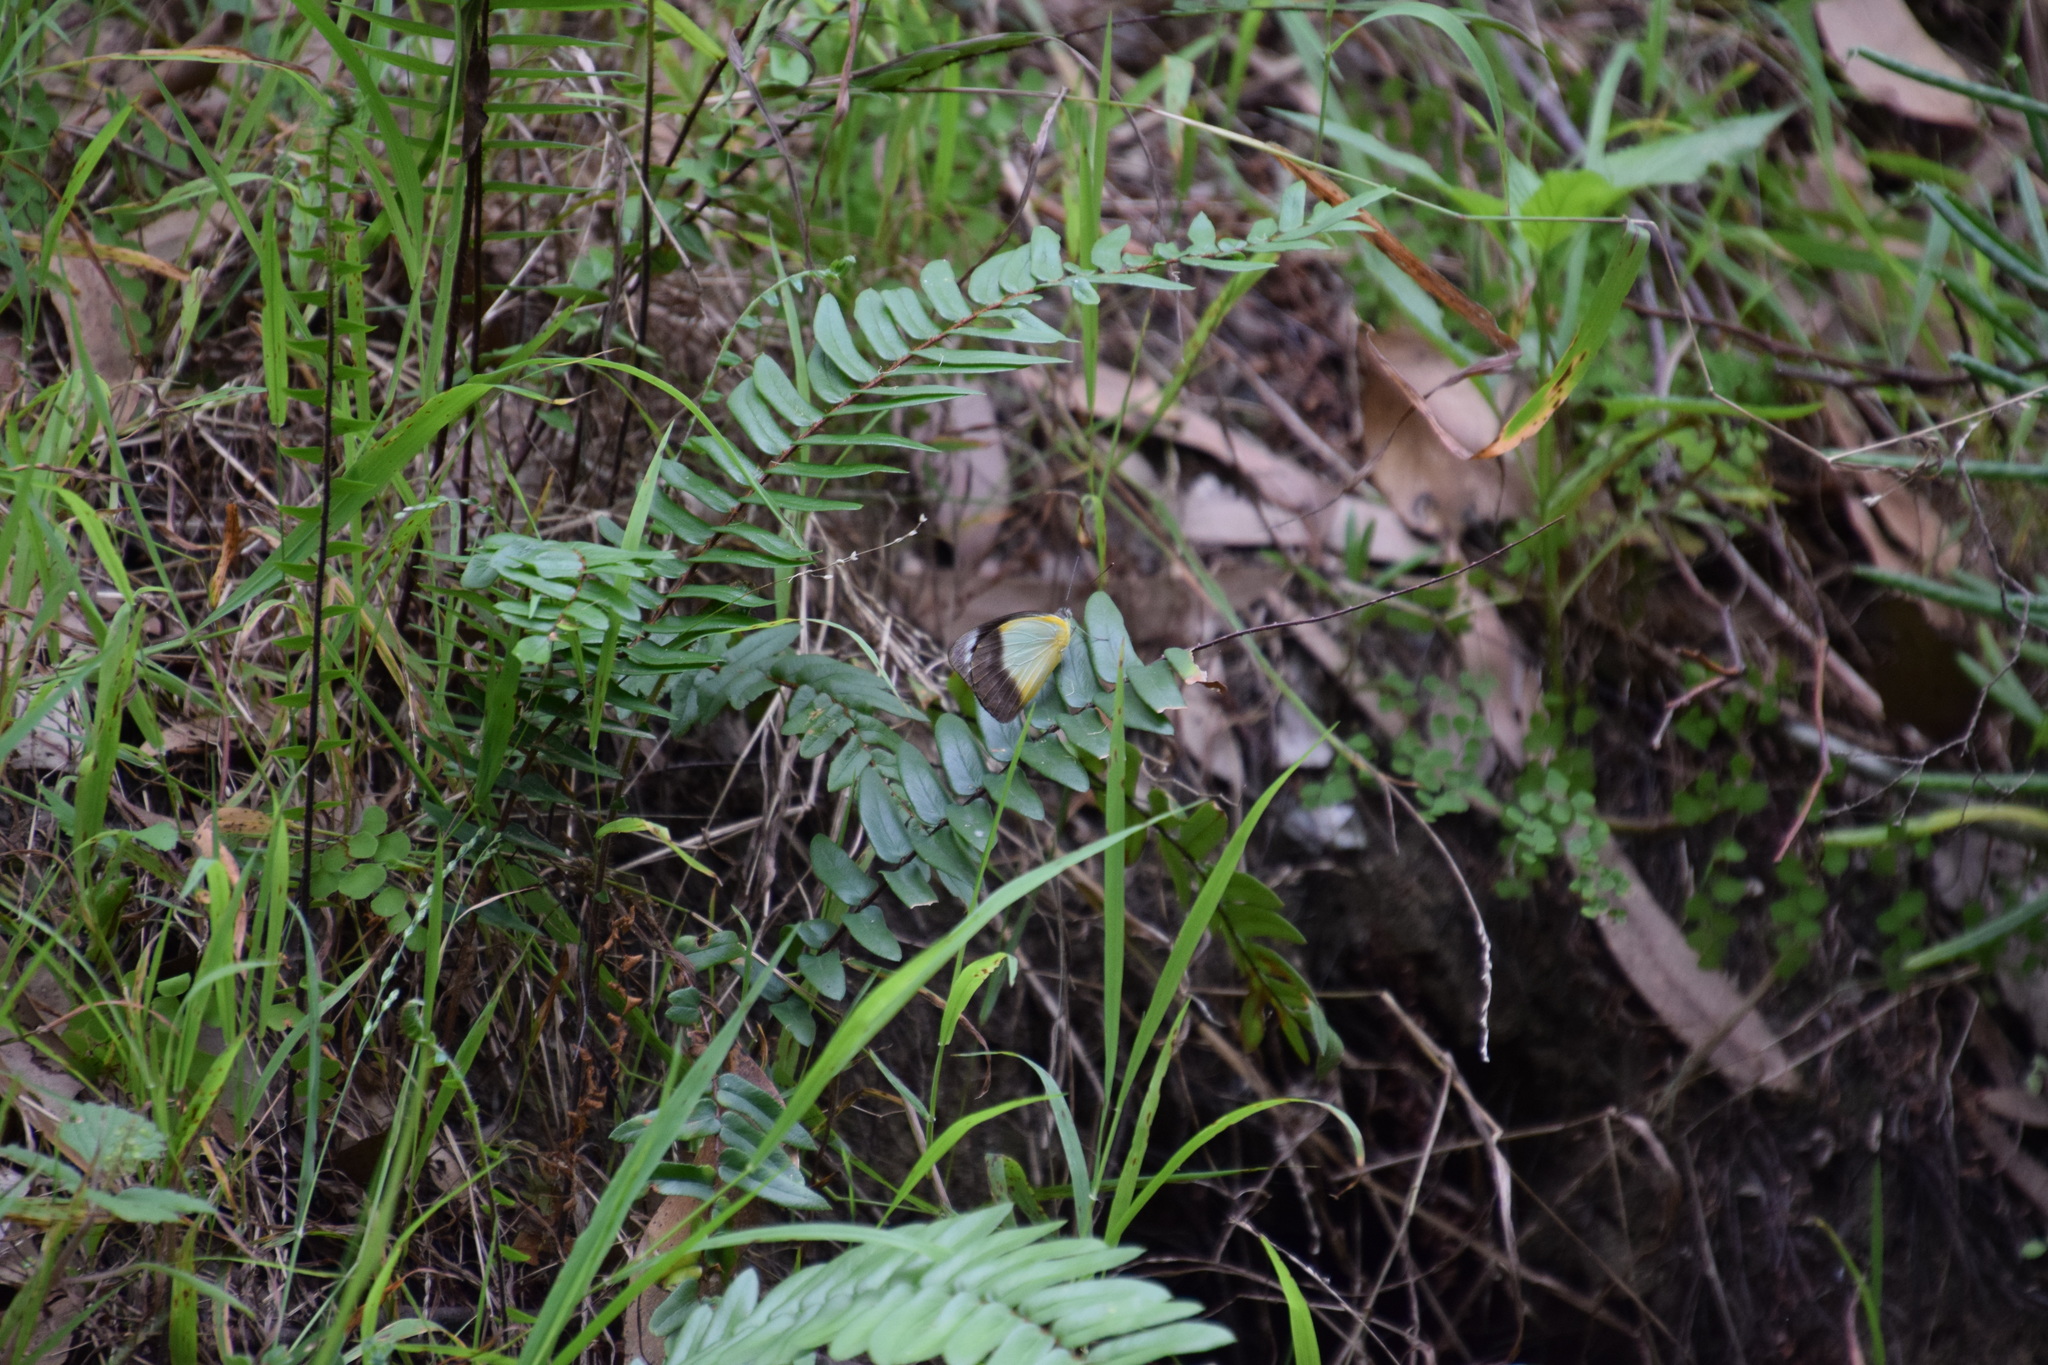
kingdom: Animalia
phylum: Arthropoda
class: Insecta
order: Lepidoptera
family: Pieridae
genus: Appias
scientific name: Appias paulina
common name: Ceylon lesser albatross
